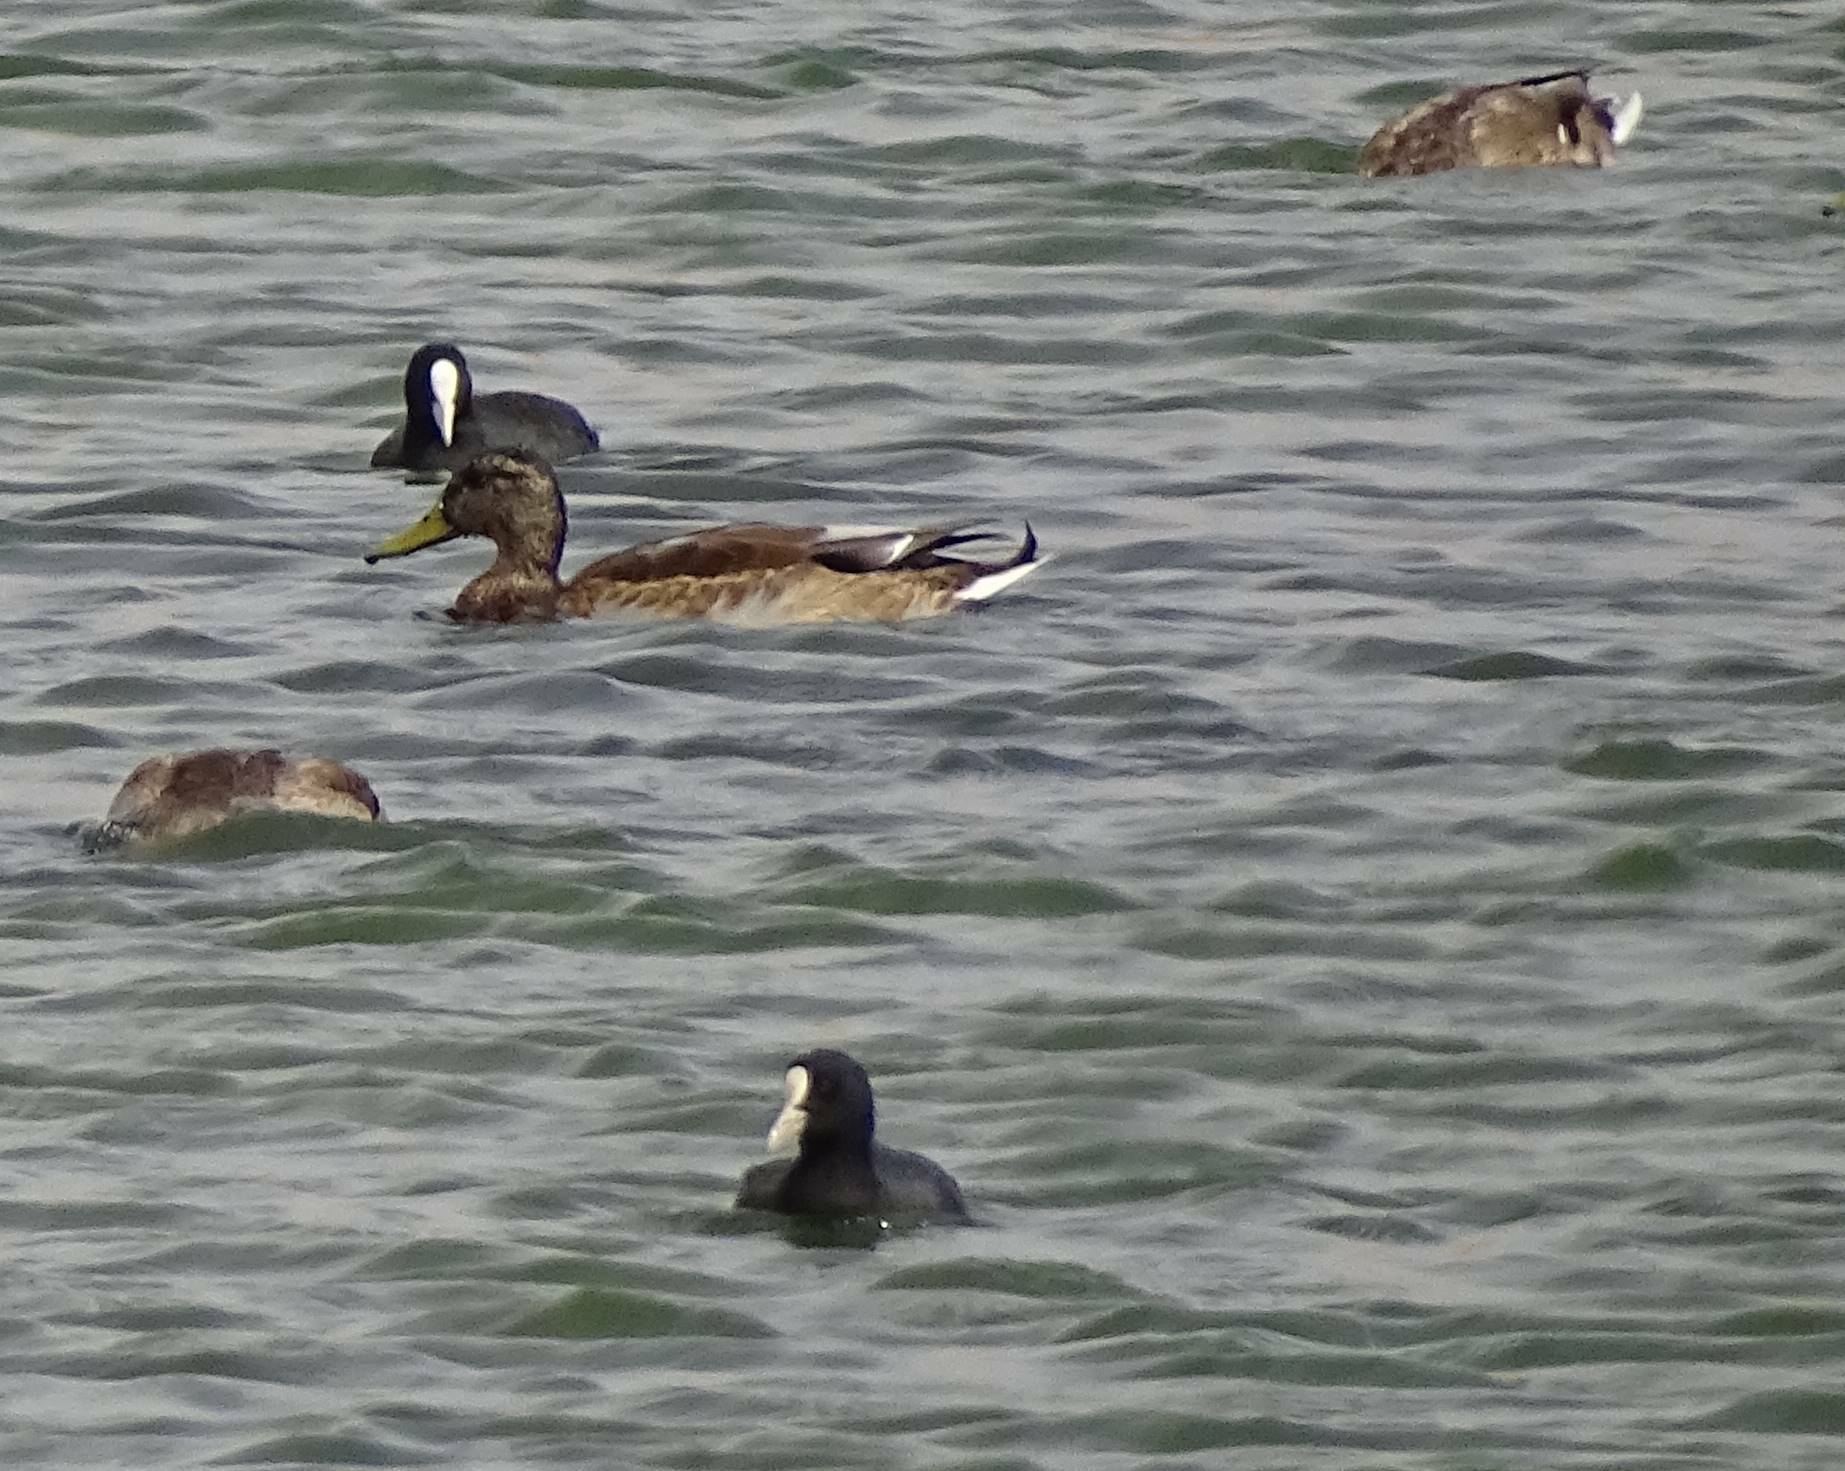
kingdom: Animalia
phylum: Chordata
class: Aves
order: Anseriformes
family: Anatidae
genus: Anas
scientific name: Anas platyrhynchos
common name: Mallard
